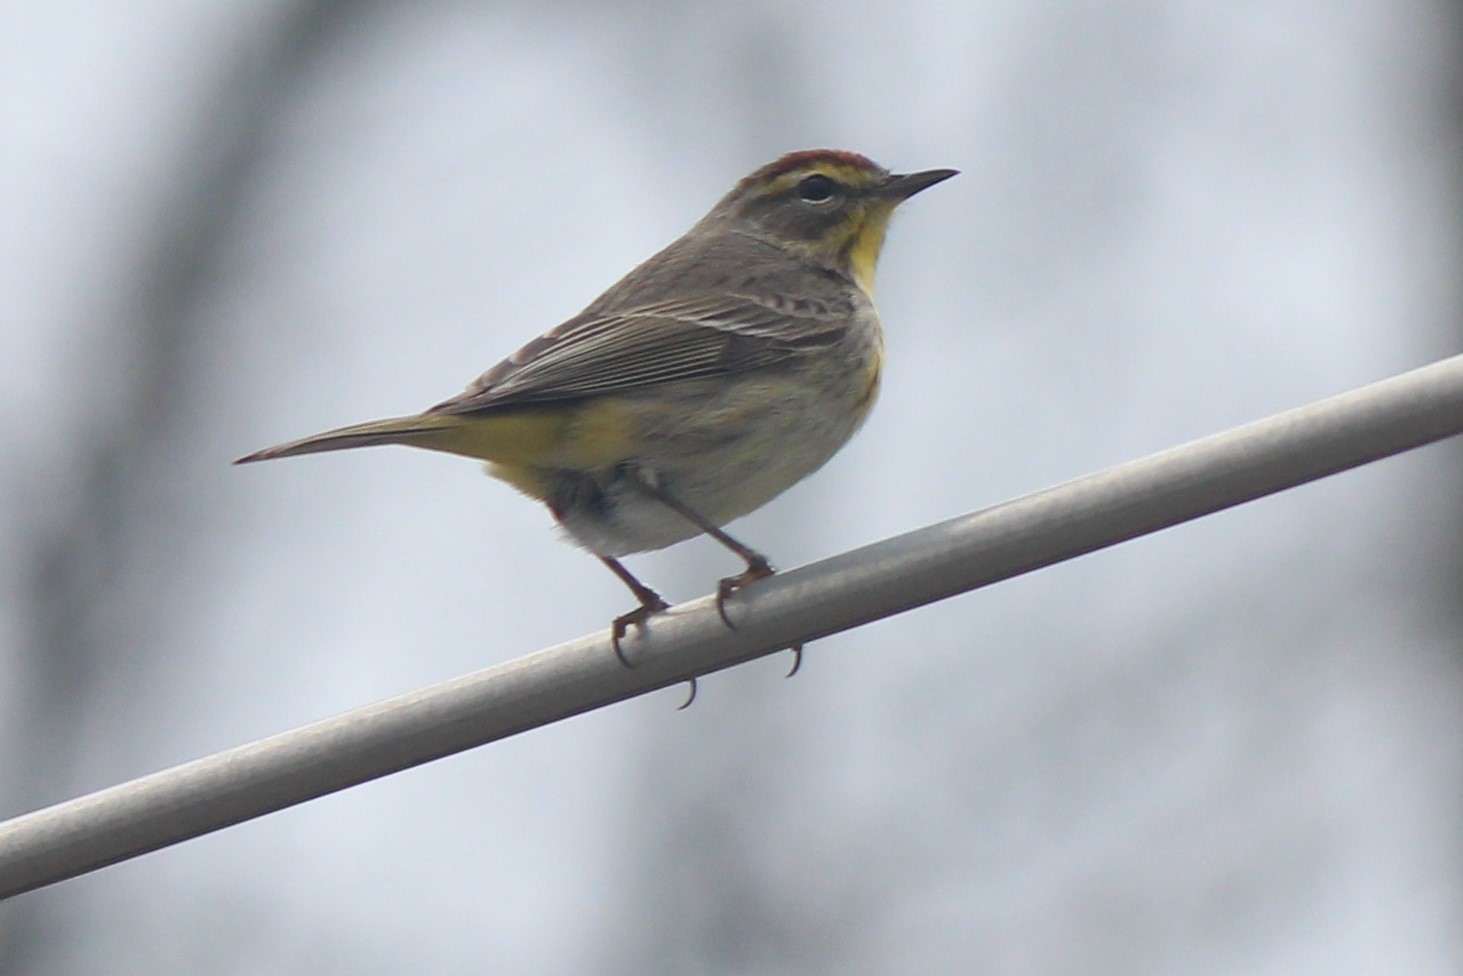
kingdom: Animalia
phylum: Chordata
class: Aves
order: Passeriformes
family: Parulidae
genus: Setophaga
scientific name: Setophaga palmarum
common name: Palm warbler
